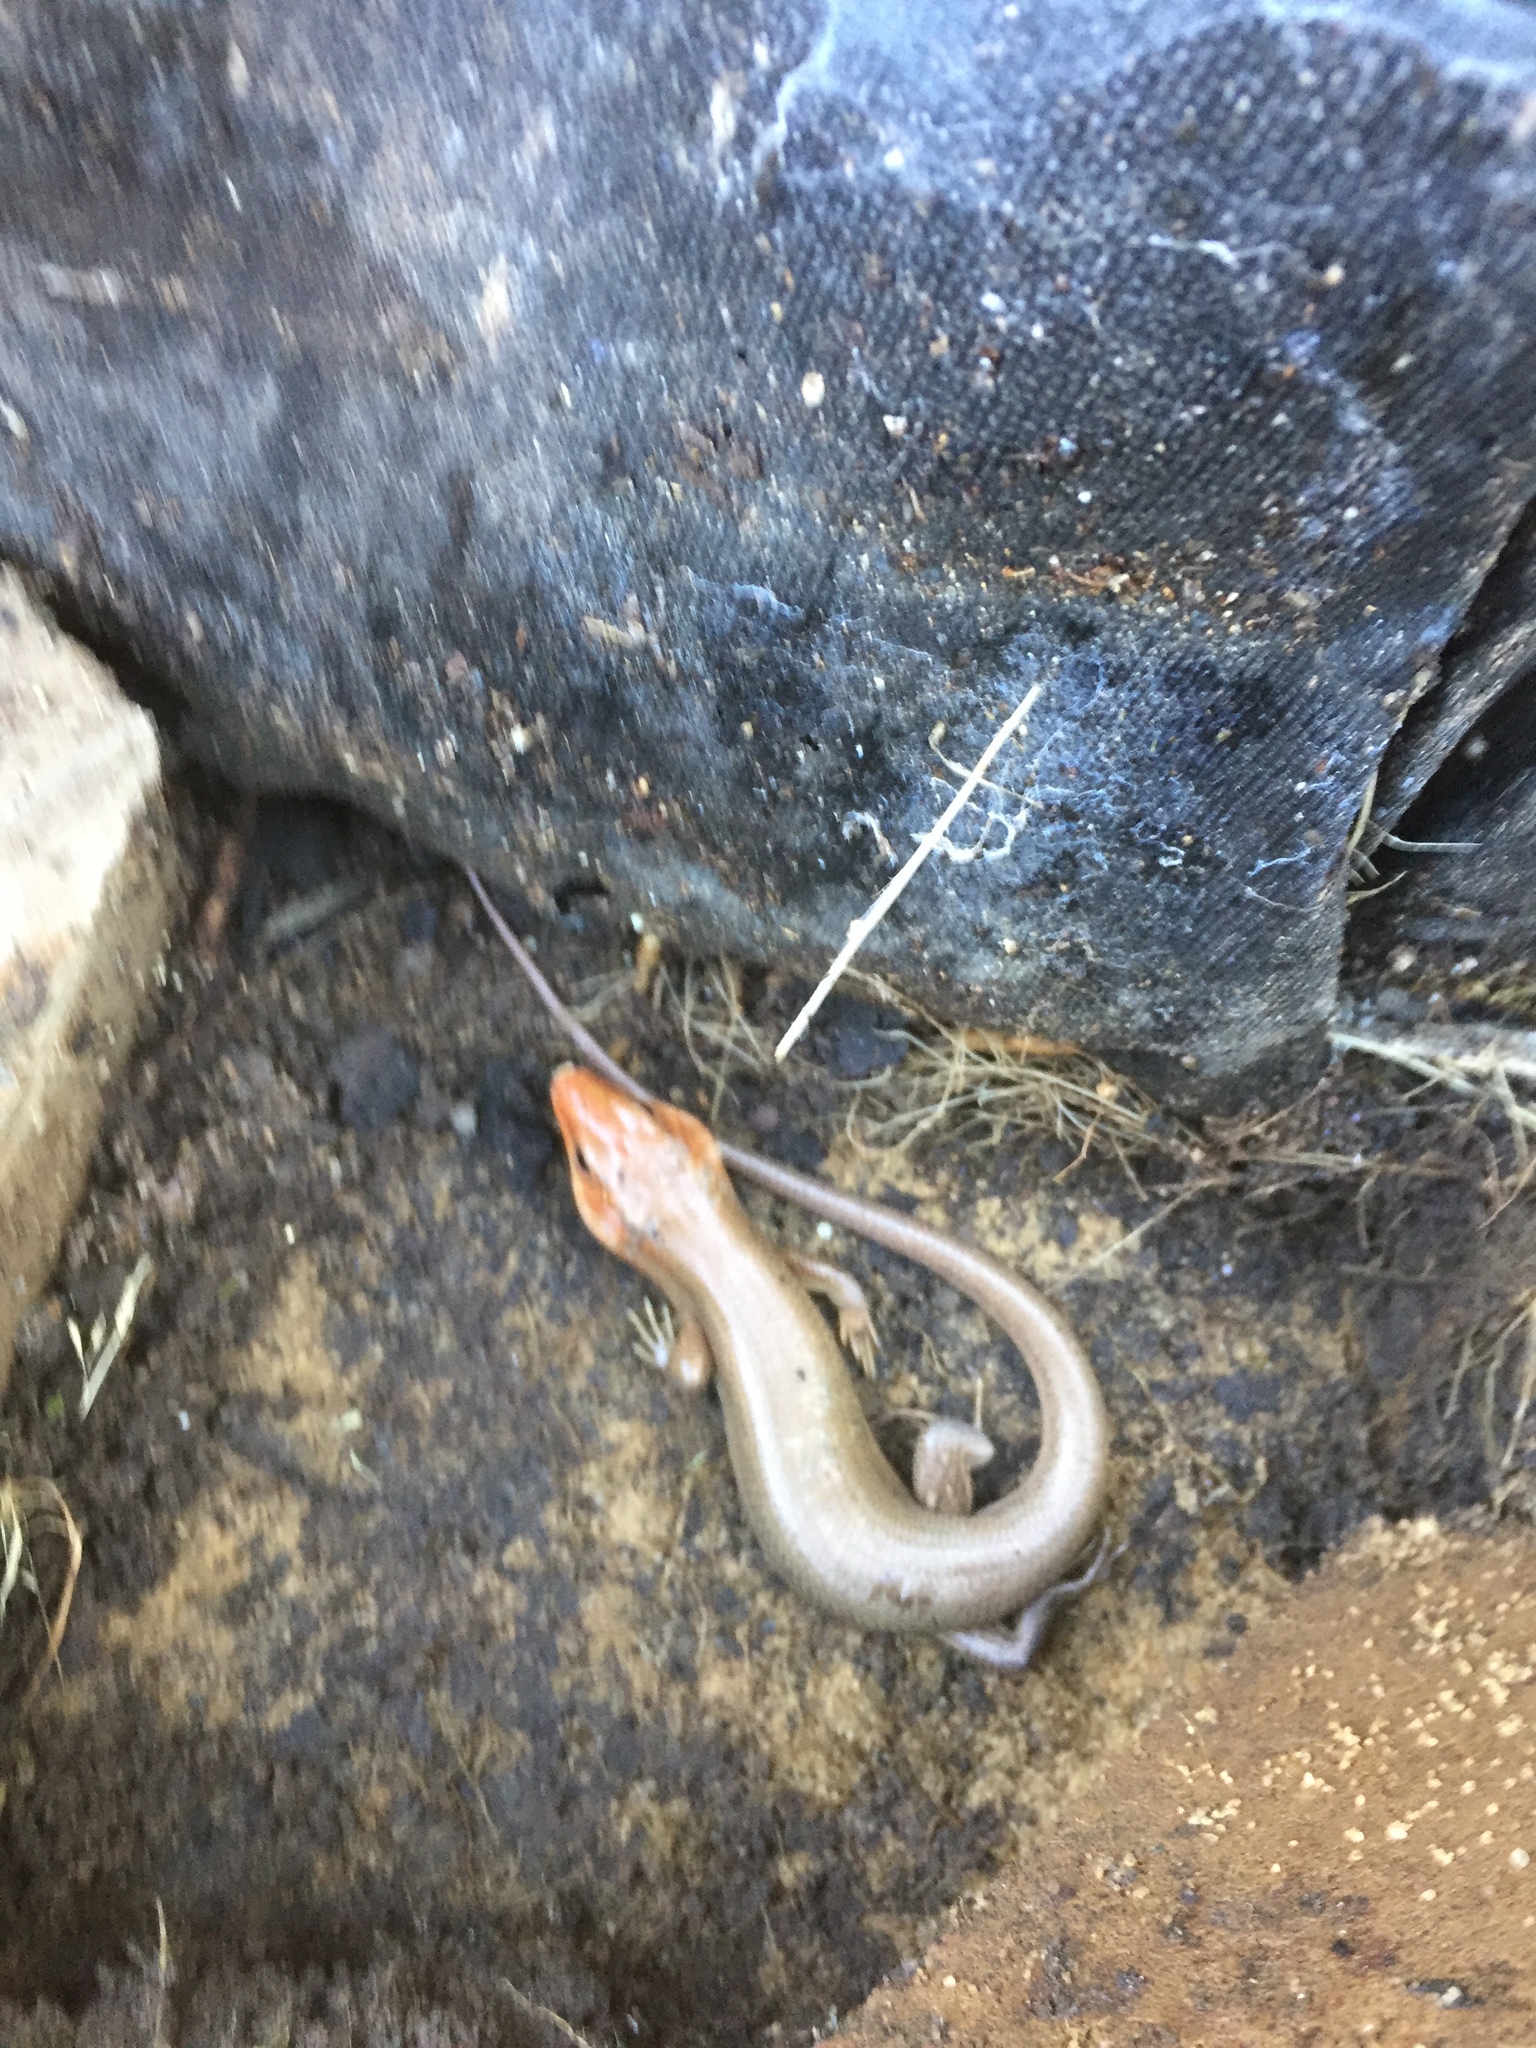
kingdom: Animalia
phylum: Chordata
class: Squamata
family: Scincidae
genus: Plestiodon
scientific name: Plestiodon laticeps
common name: Broadhead skink
